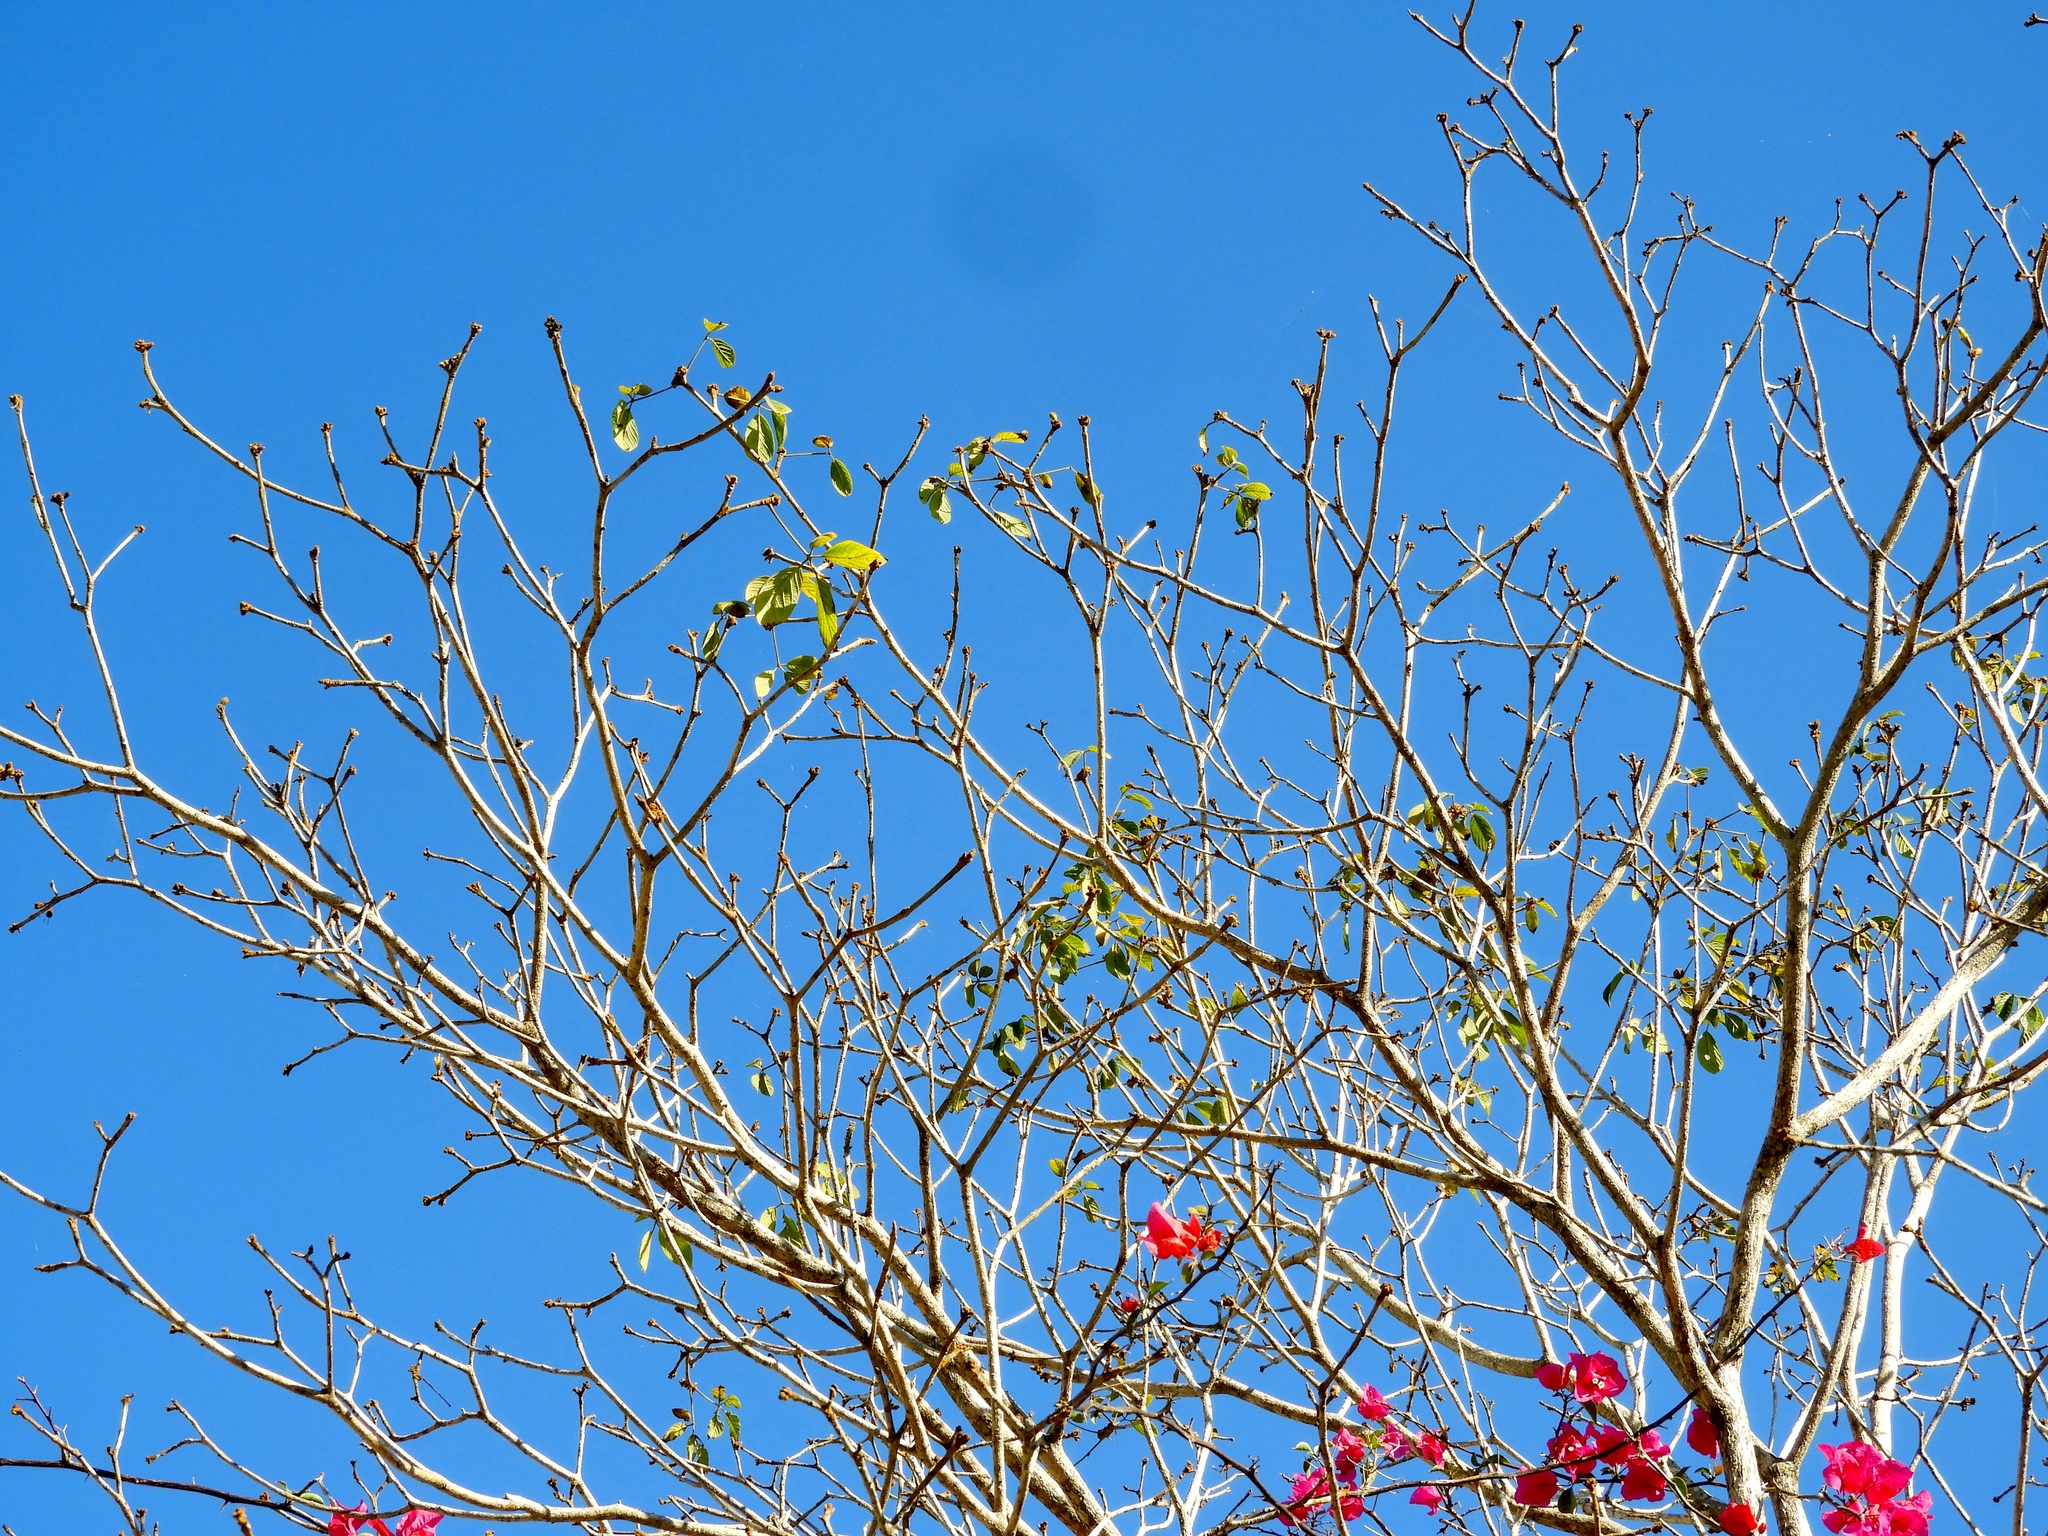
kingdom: Plantae
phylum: Tracheophyta
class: Magnoliopsida
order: Lamiales
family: Bignoniaceae
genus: Handroanthus
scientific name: Handroanthus chrysanthus
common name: Trumpet trees
